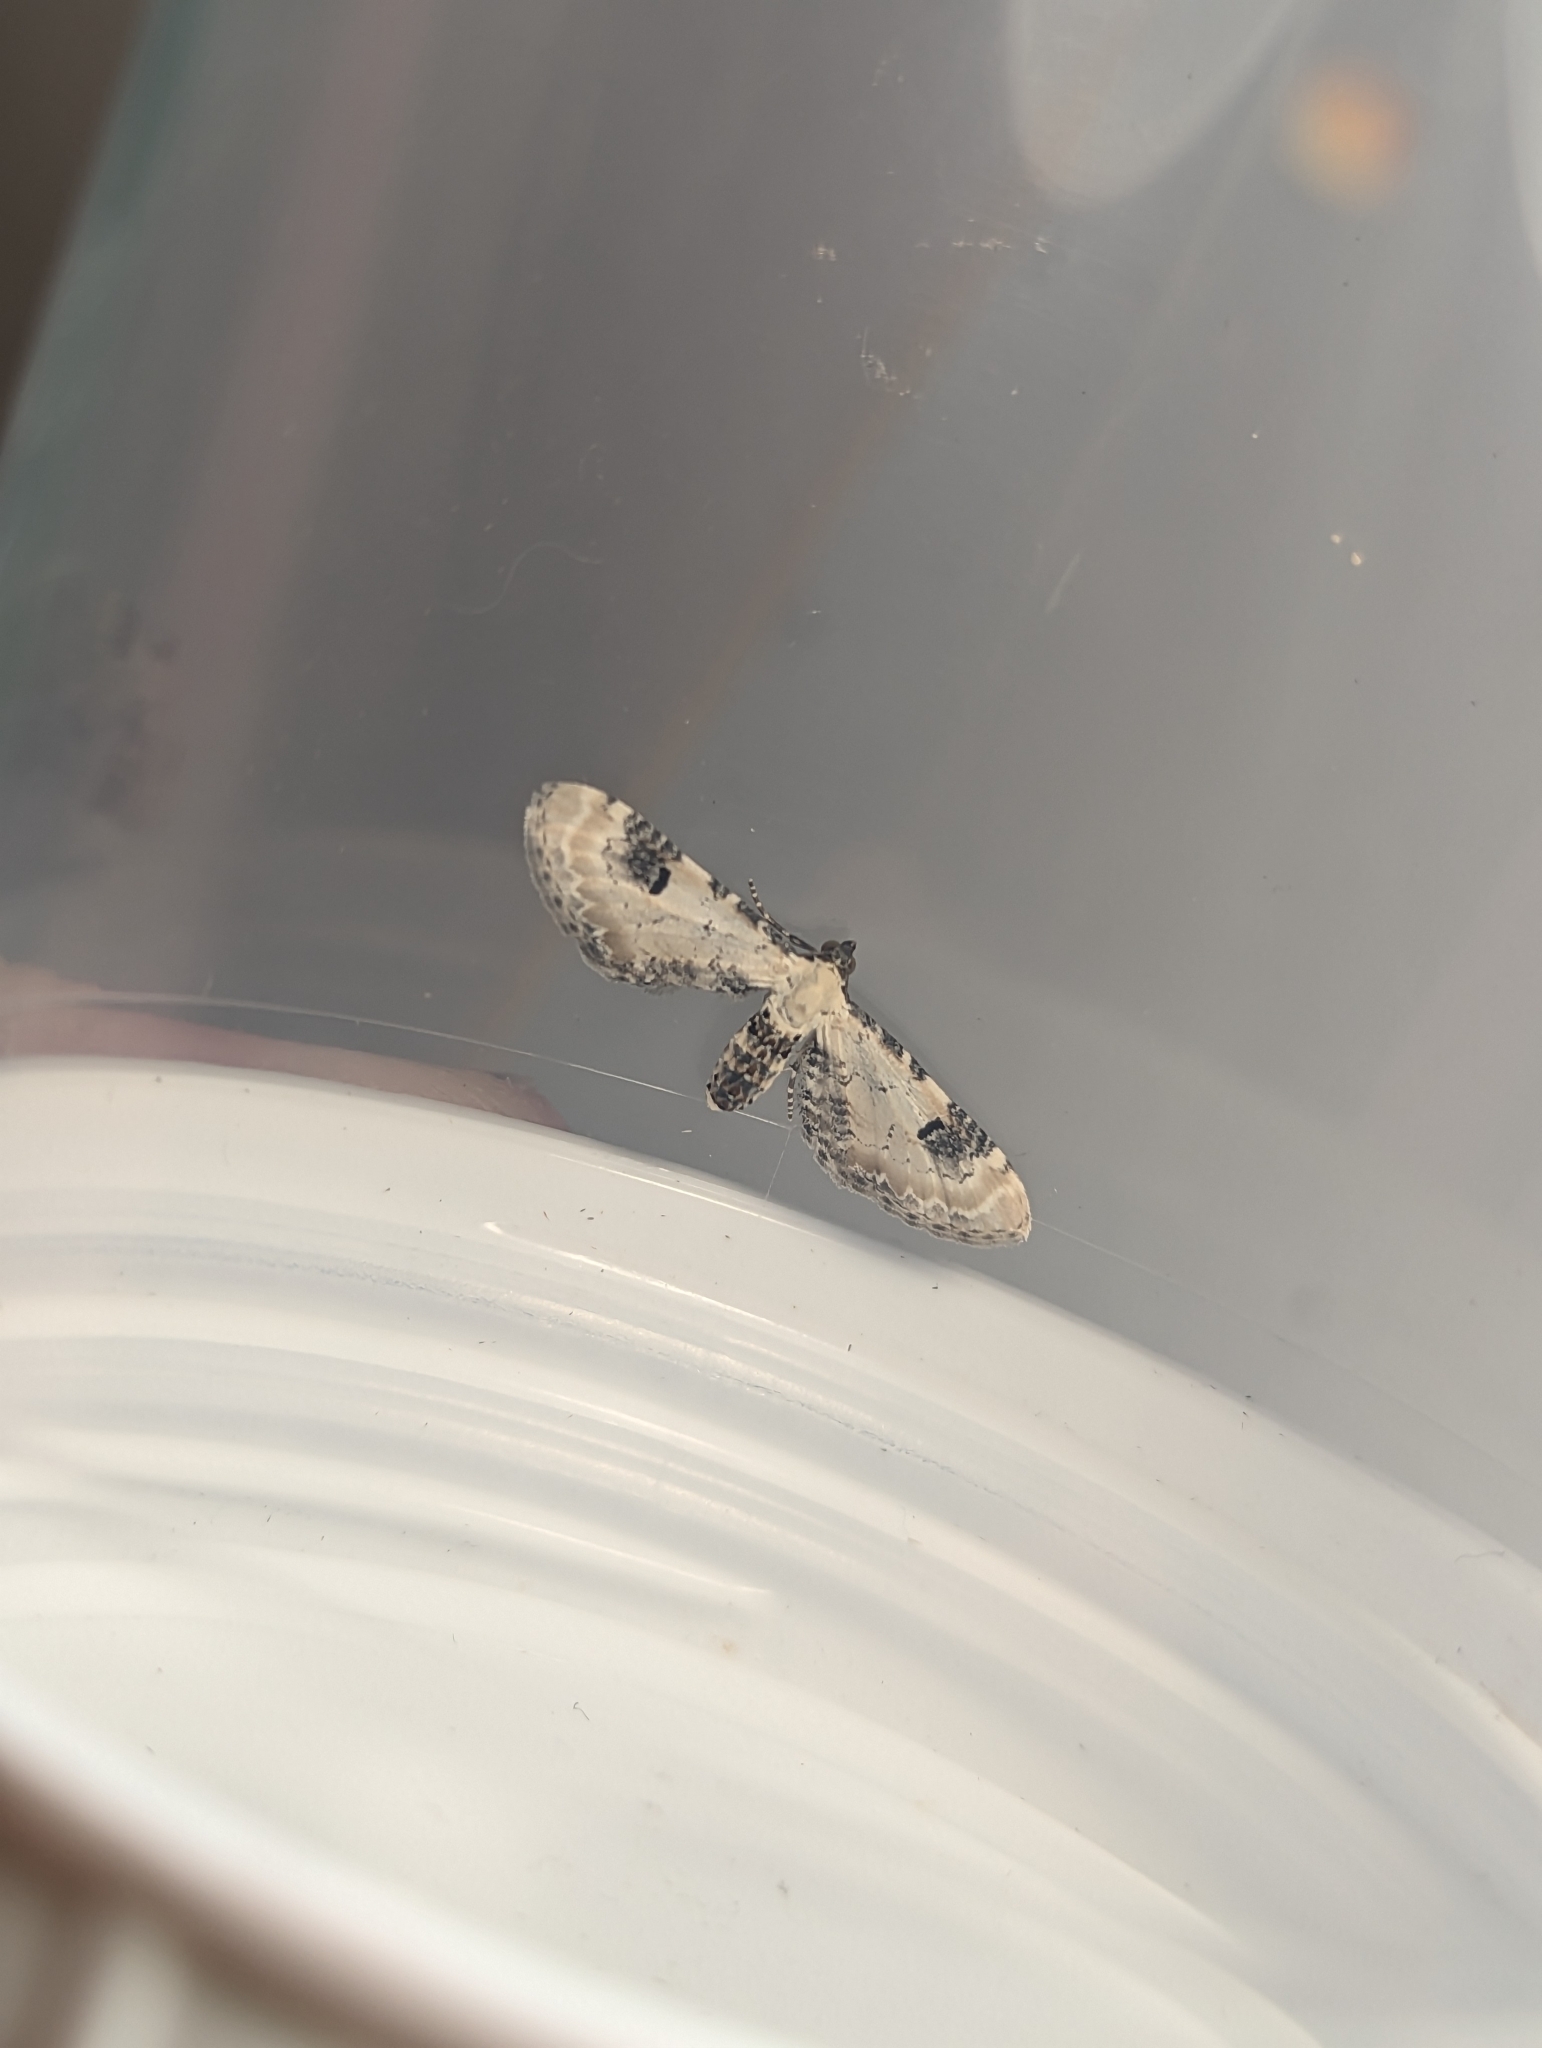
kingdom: Animalia
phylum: Arthropoda
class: Insecta
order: Lepidoptera
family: Geometridae
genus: Eupithecia
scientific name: Eupithecia centaureata
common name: Lime-speck pug
